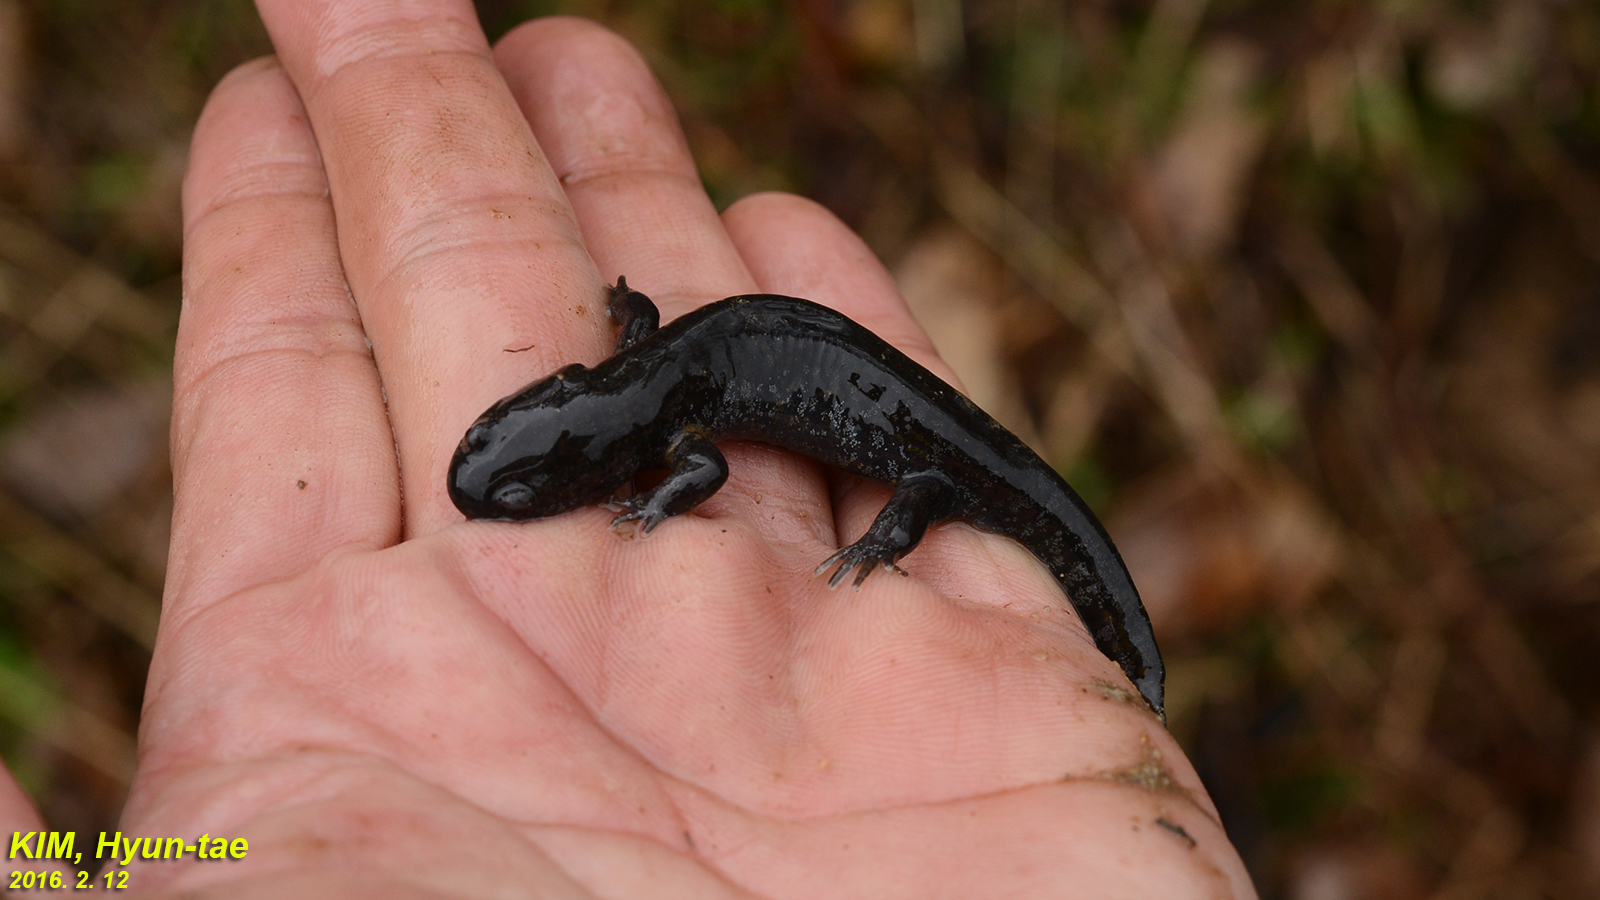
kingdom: Animalia
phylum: Chordata
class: Amphibia
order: Caudata
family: Hynobiidae
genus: Hynobius
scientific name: Hynobius quelpaertensis
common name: Cheju salamander
